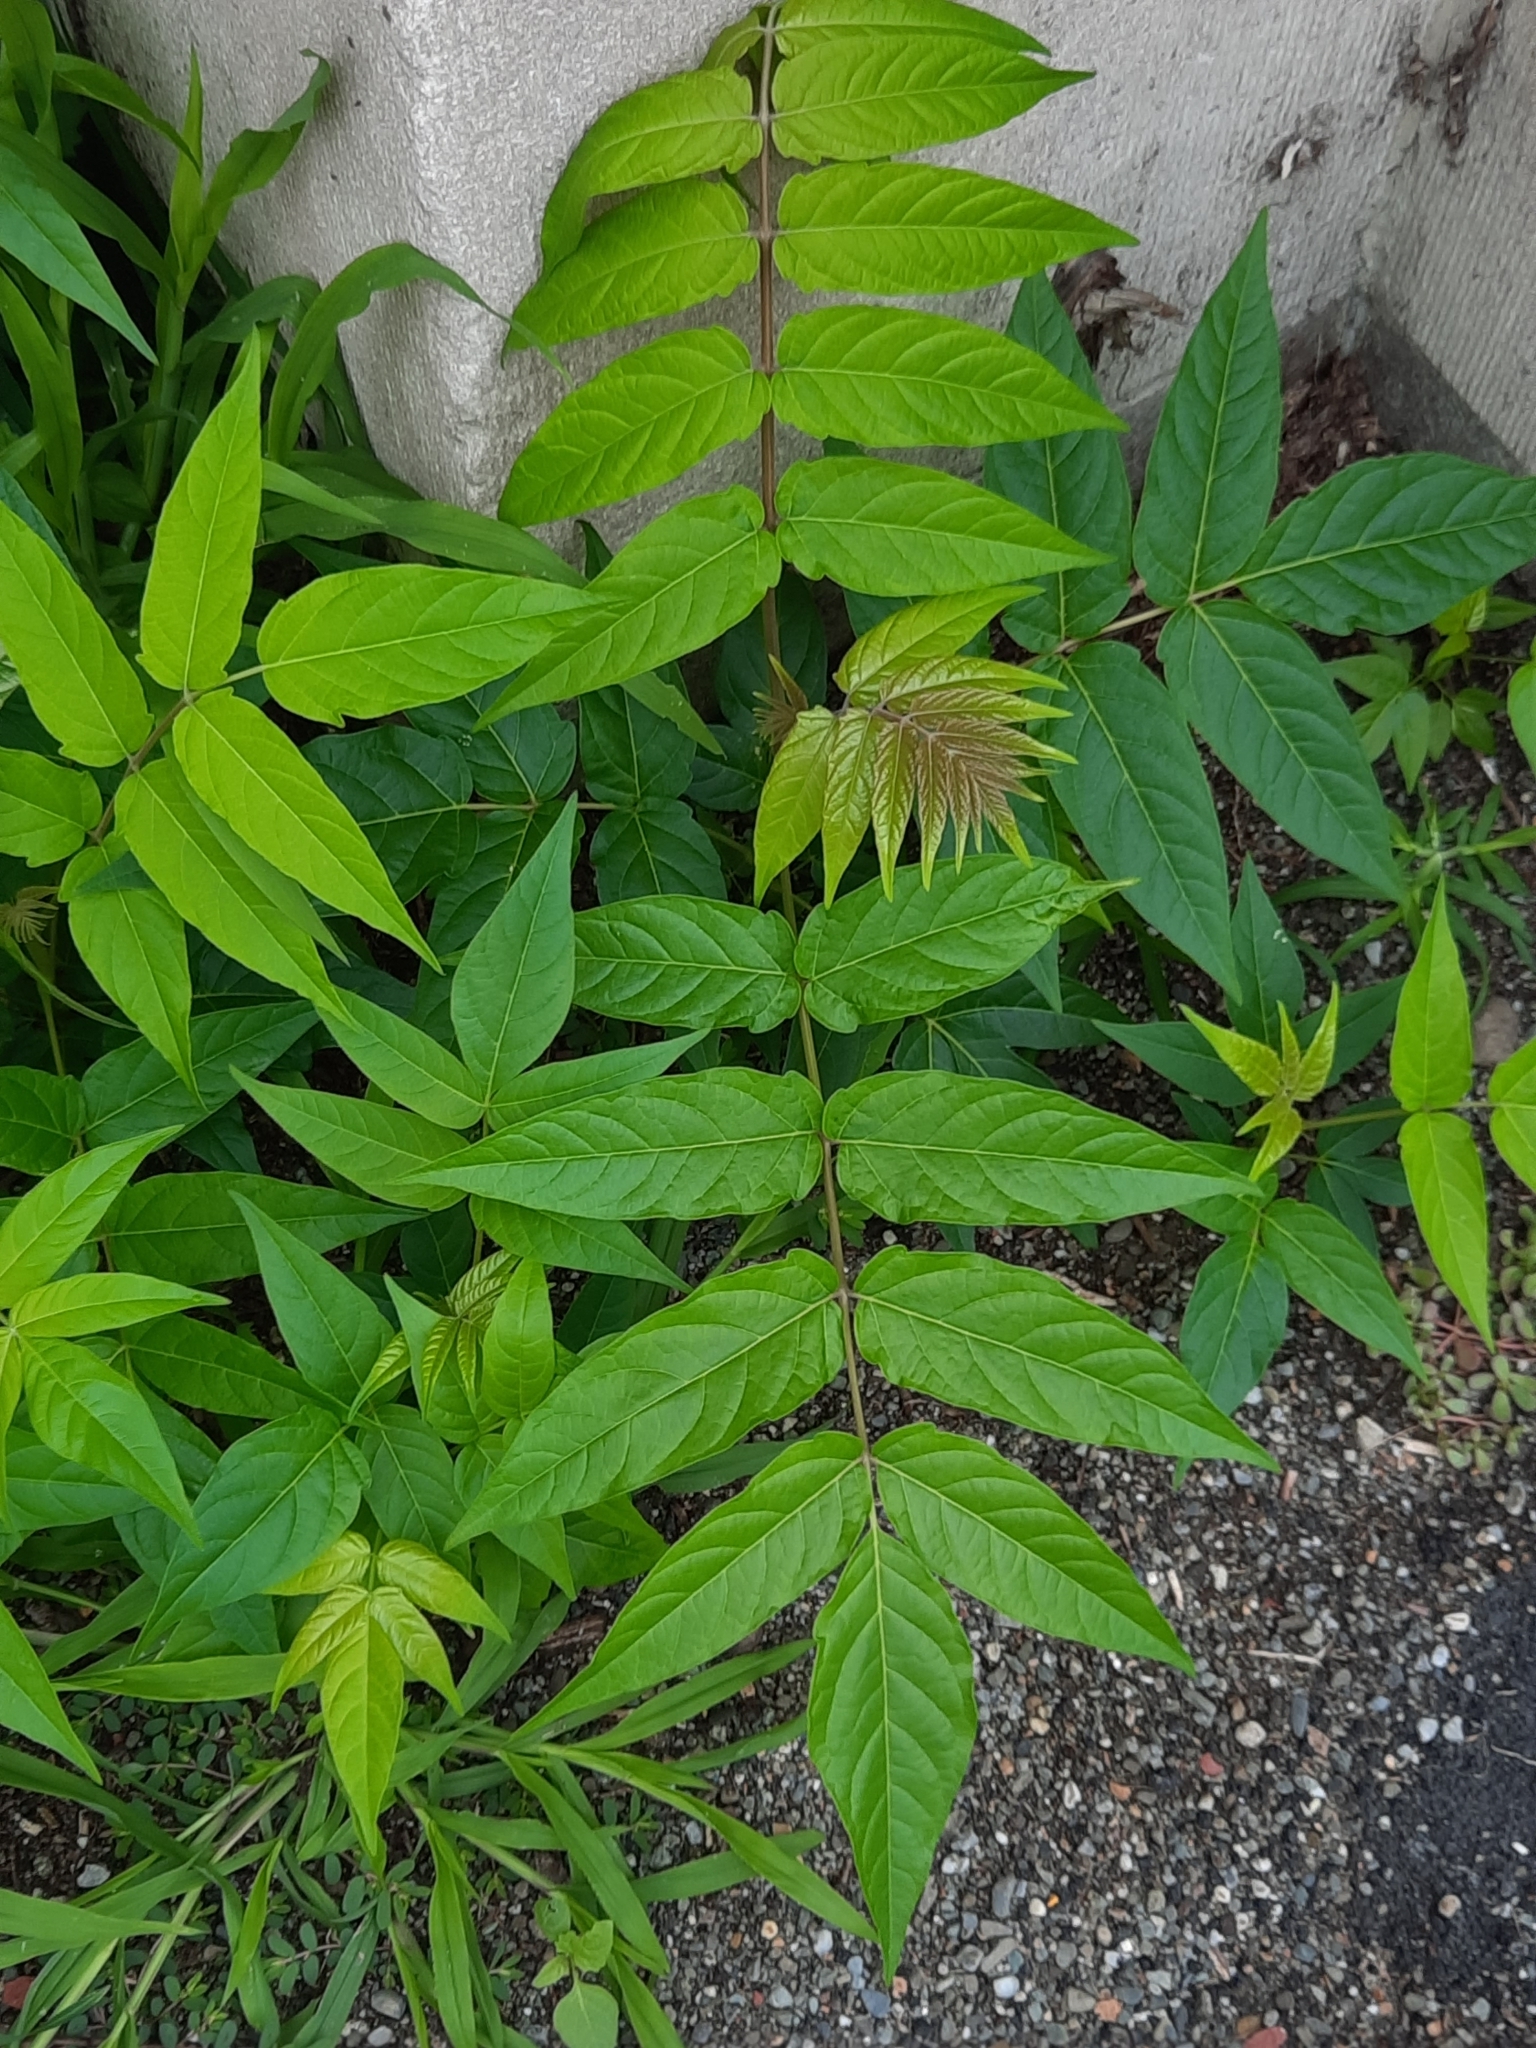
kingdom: Plantae
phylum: Tracheophyta
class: Magnoliopsida
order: Sapindales
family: Simaroubaceae
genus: Ailanthus
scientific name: Ailanthus altissima
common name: Tree-of-heaven
